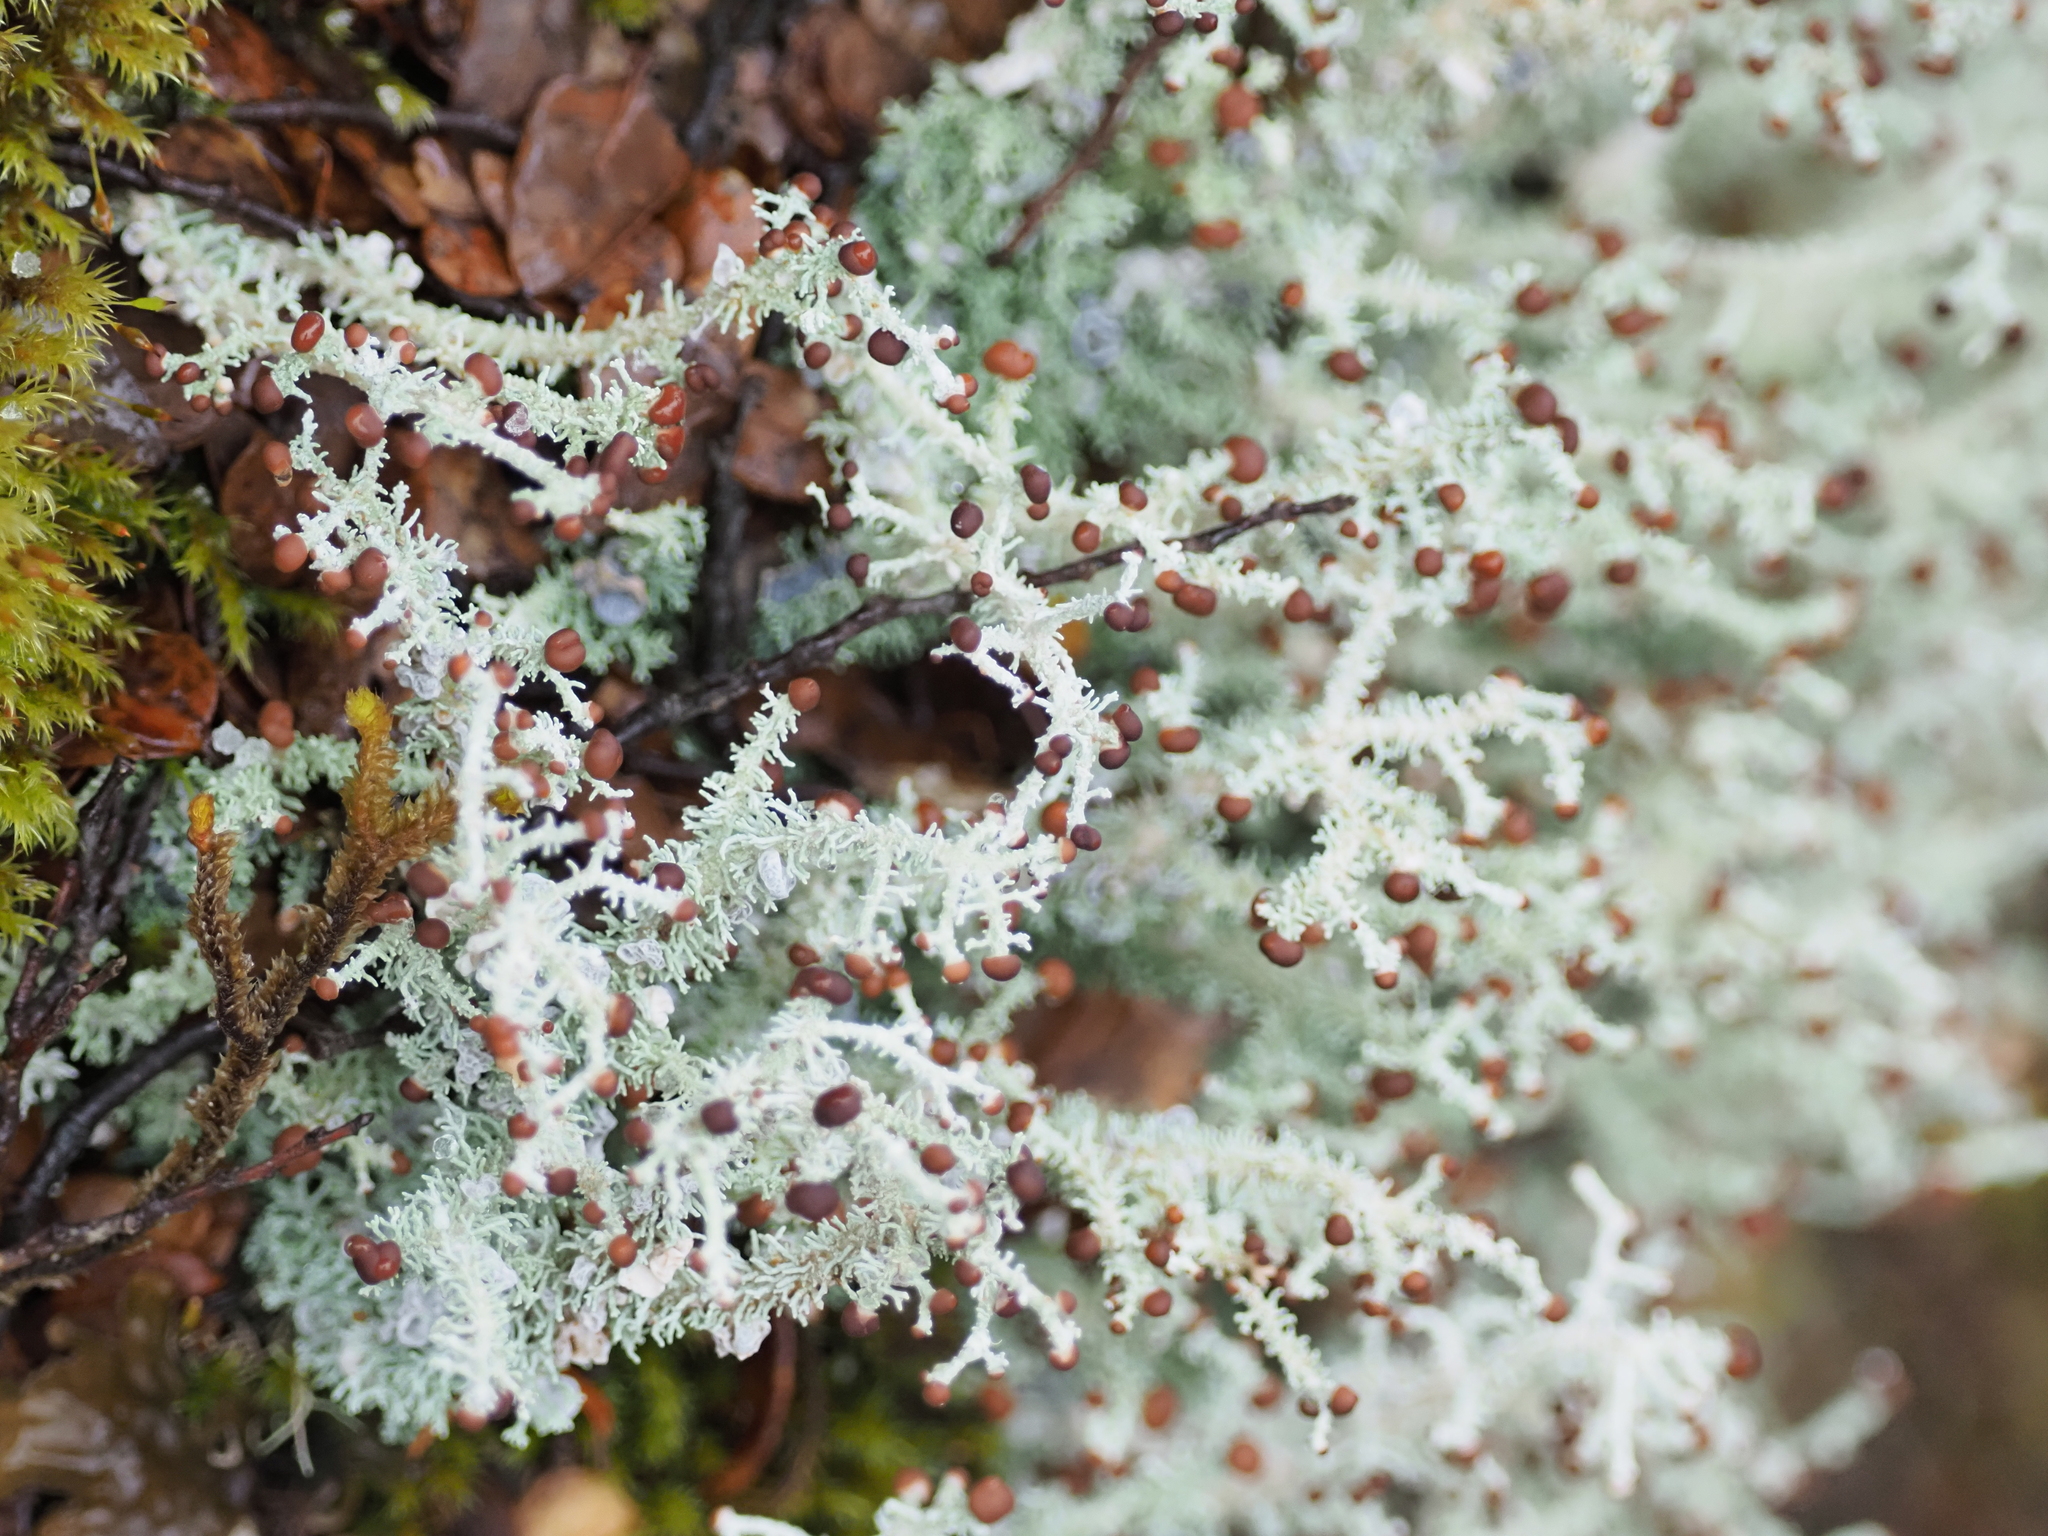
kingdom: Fungi
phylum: Ascomycota
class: Lecanoromycetes
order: Lecanorales
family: Stereocaulaceae
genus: Stereocaulon
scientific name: Stereocaulon ramulosum
